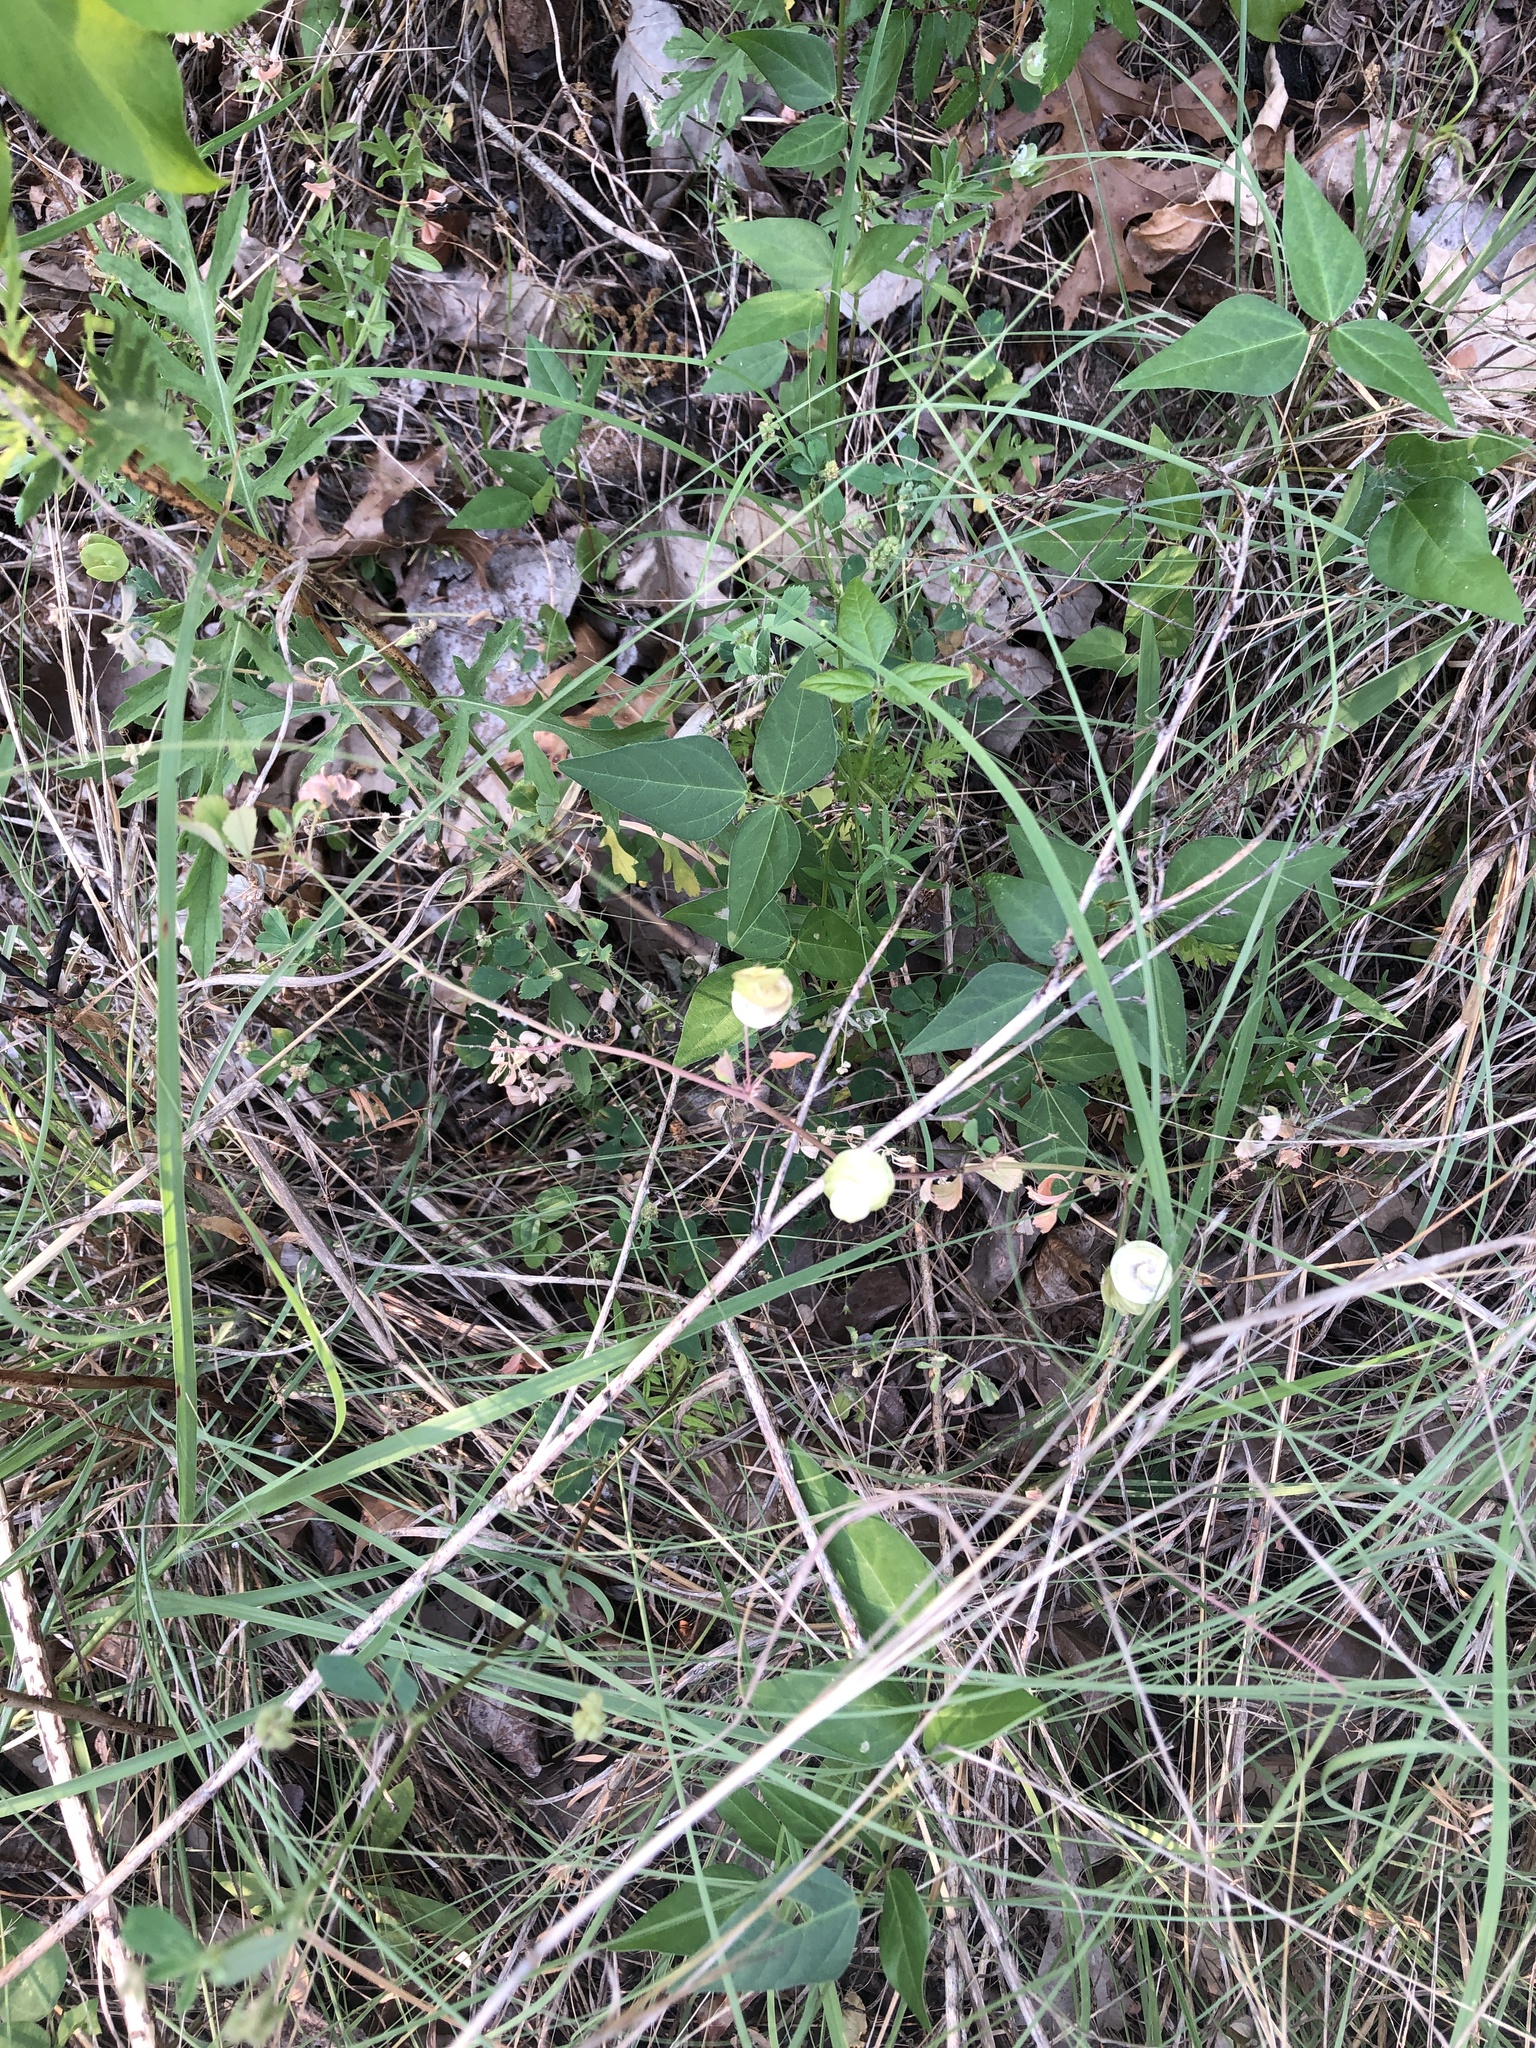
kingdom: Plantae
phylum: Tracheophyta
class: Magnoliopsida
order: Fabales
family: Fabaceae
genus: Medicago
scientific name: Medicago orbicularis
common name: Button medick
